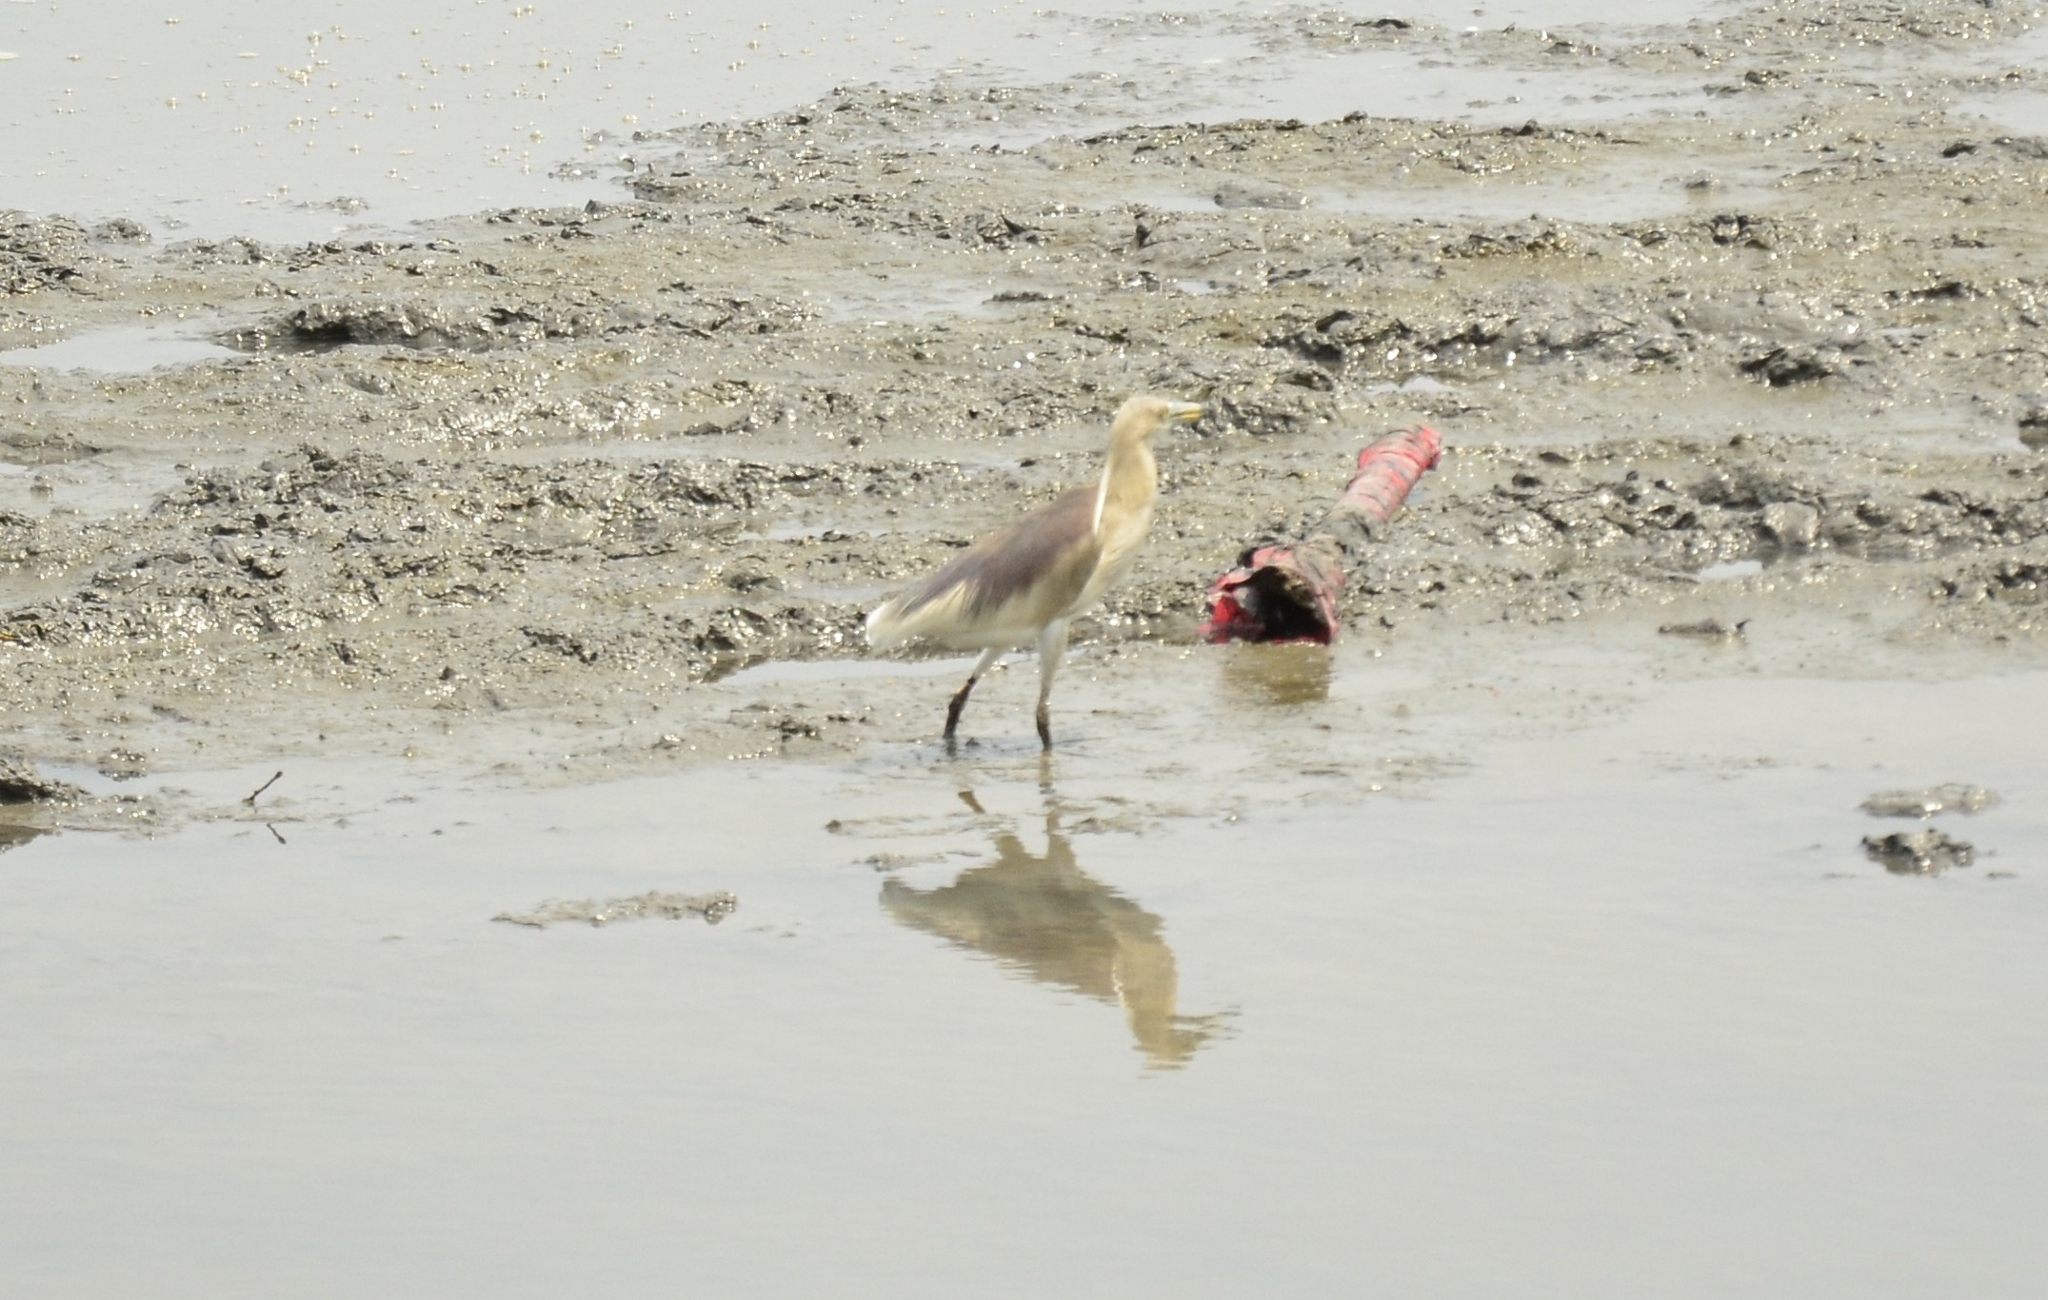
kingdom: Animalia
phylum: Chordata
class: Aves
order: Pelecaniformes
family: Ardeidae
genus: Ardeola
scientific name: Ardeola grayii
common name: Indian pond heron
